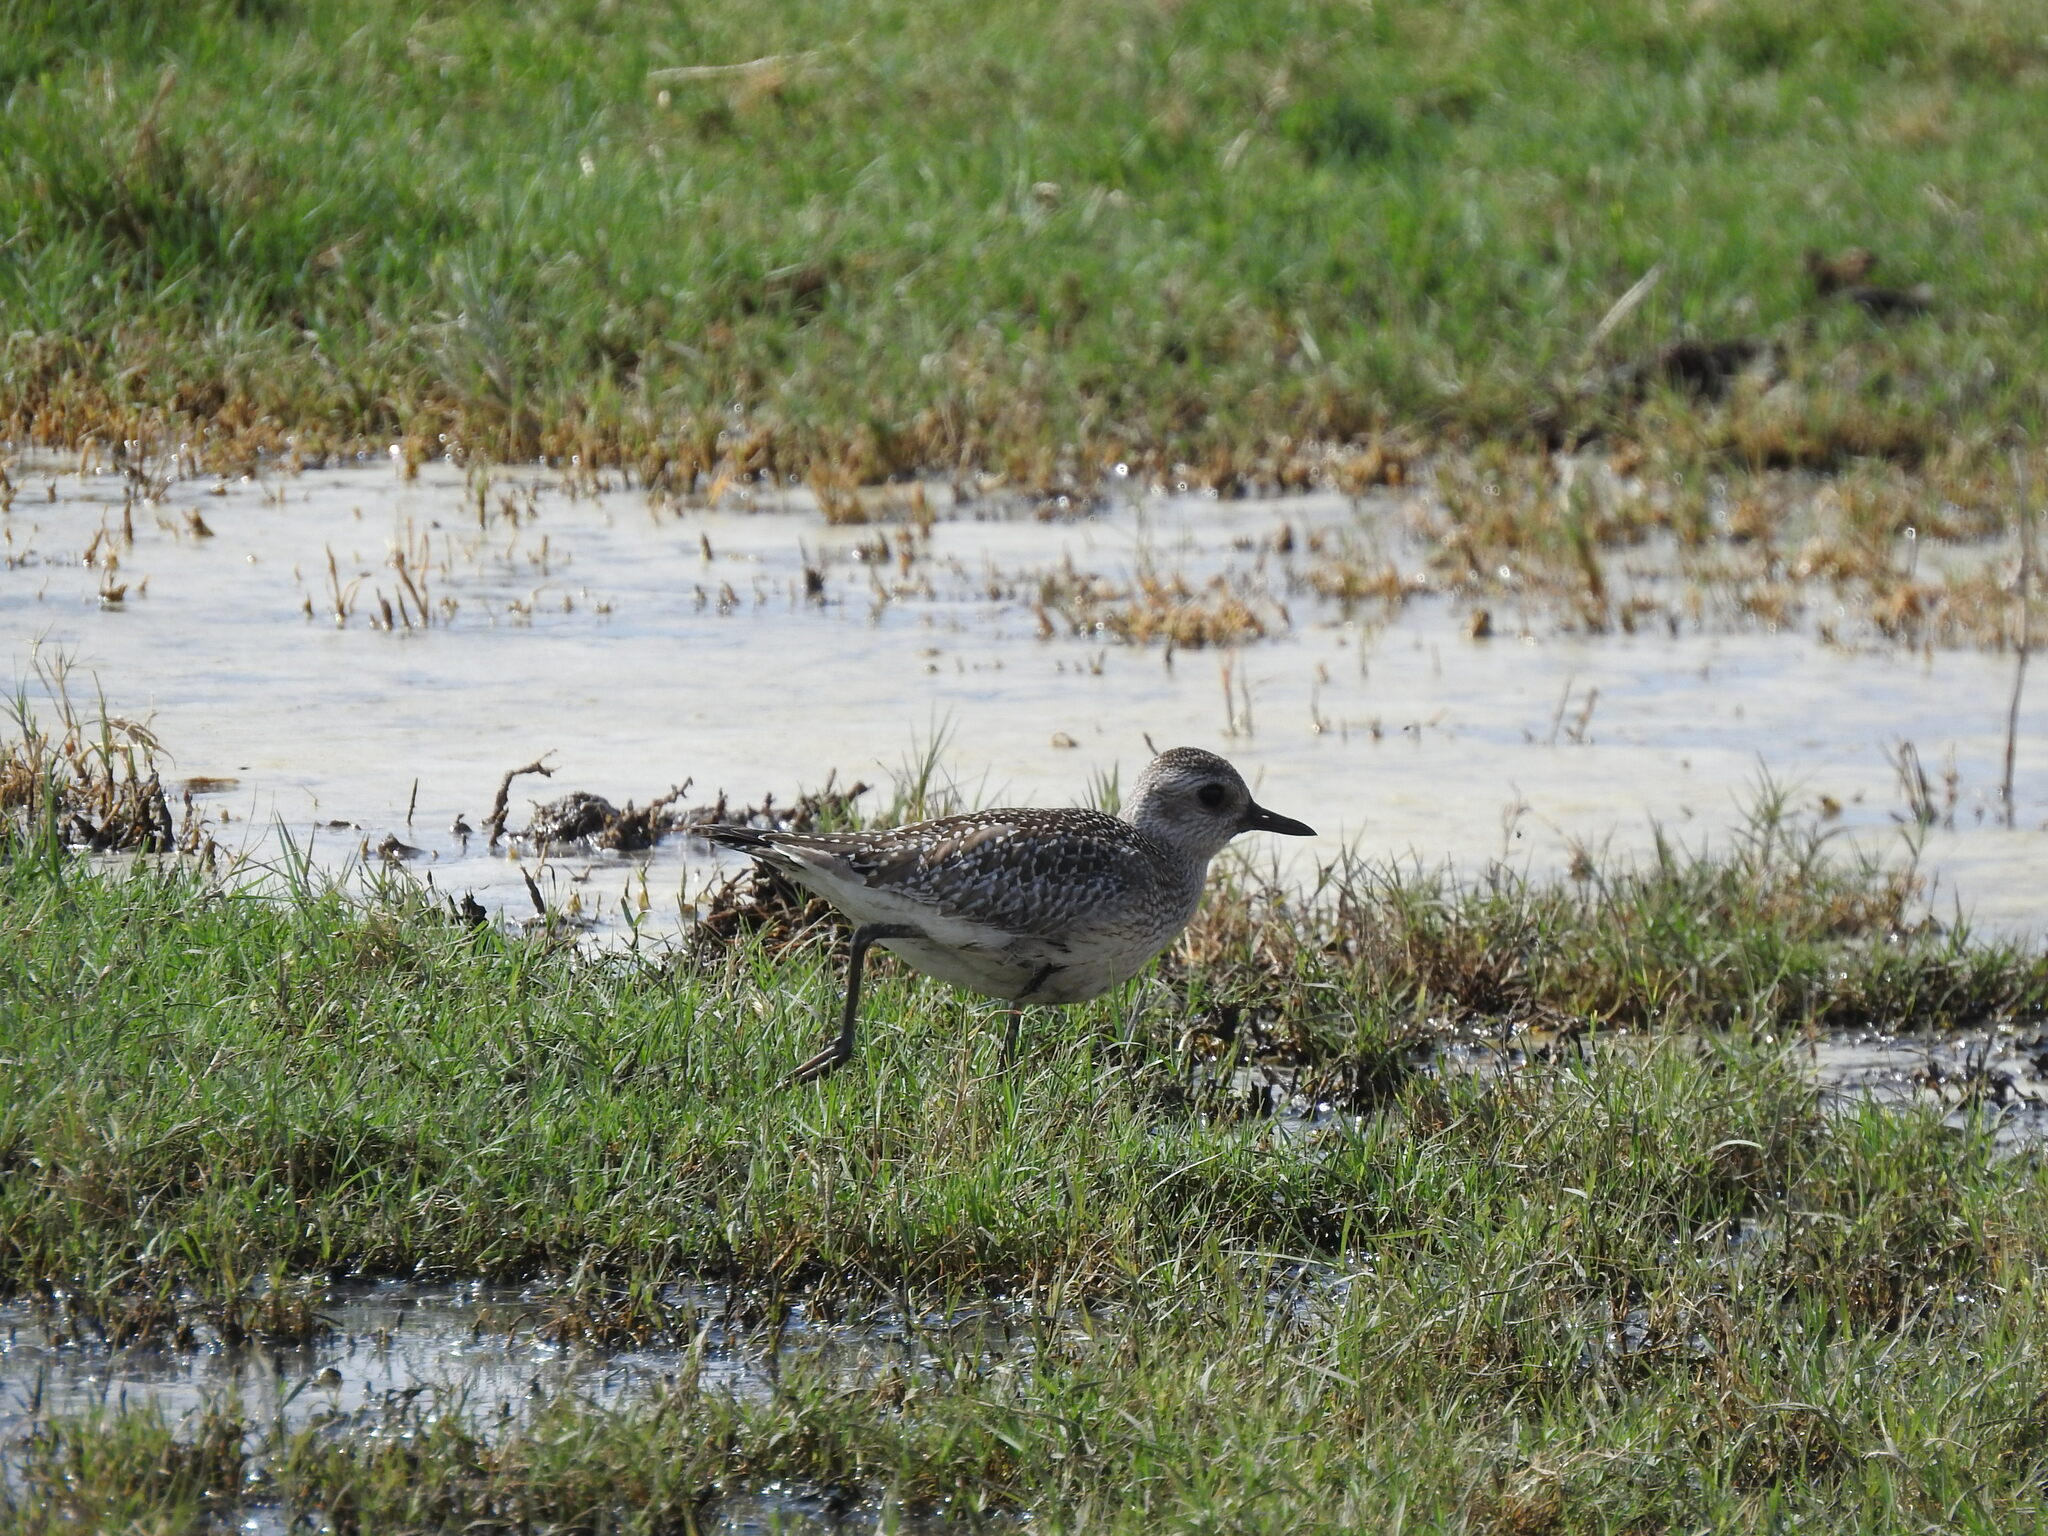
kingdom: Animalia
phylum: Chordata
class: Aves
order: Charadriiformes
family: Charadriidae
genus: Pluvialis
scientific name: Pluvialis squatarola
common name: Grey plover
